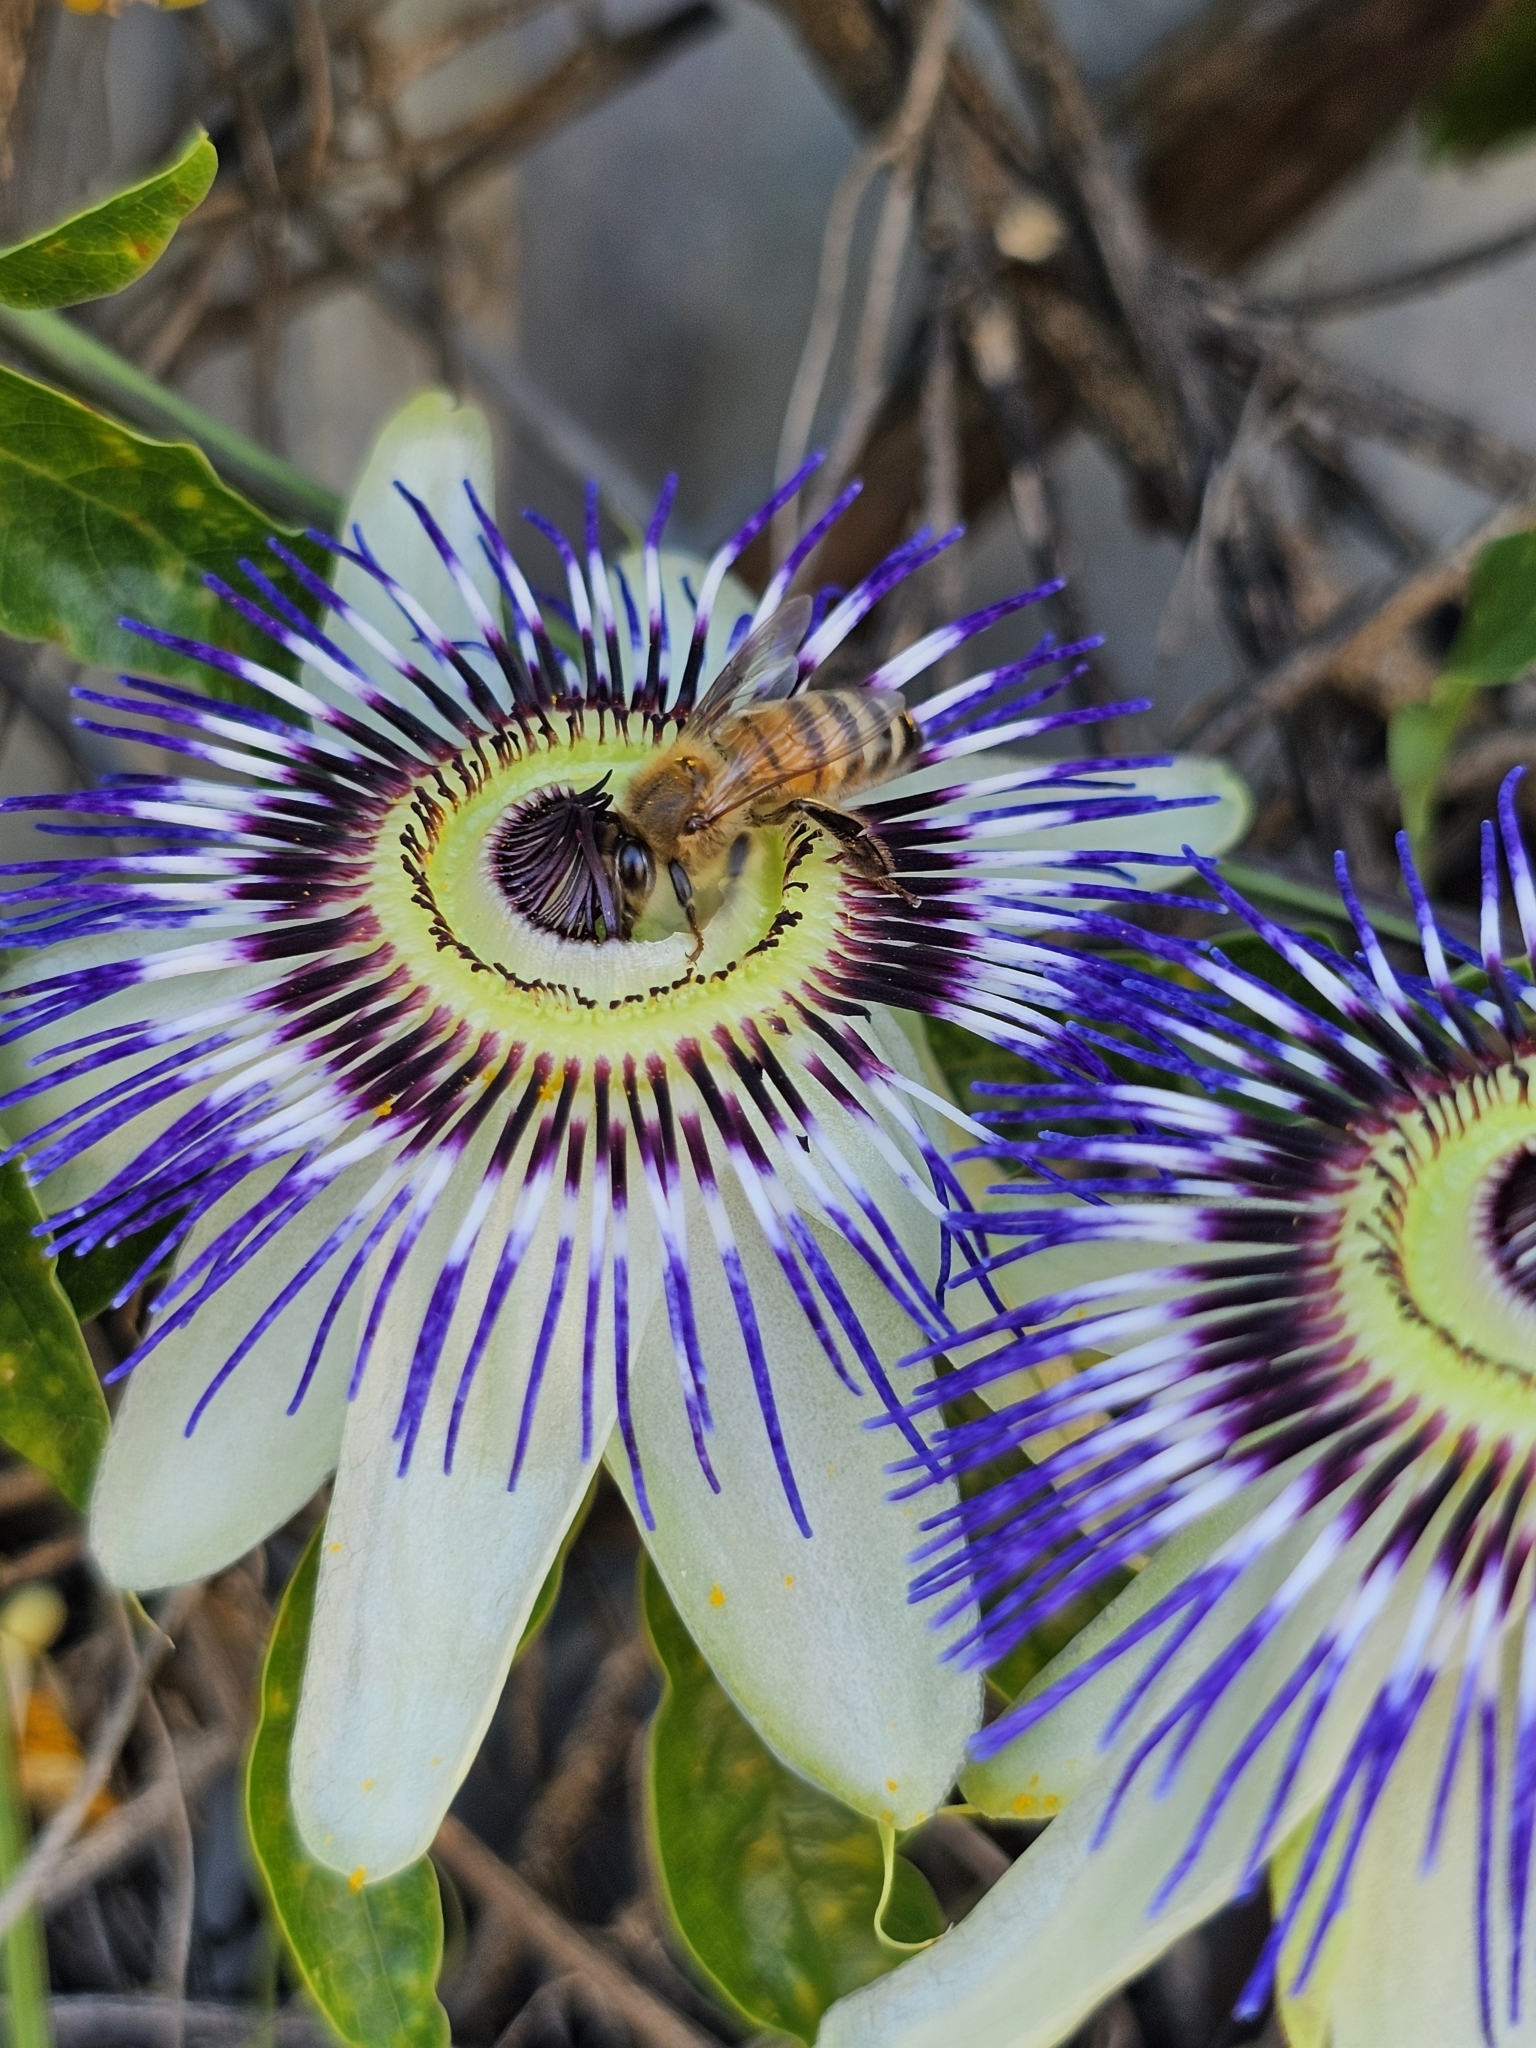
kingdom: Animalia
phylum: Arthropoda
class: Insecta
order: Hymenoptera
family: Apidae
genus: Apis
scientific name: Apis mellifera
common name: Honey bee
